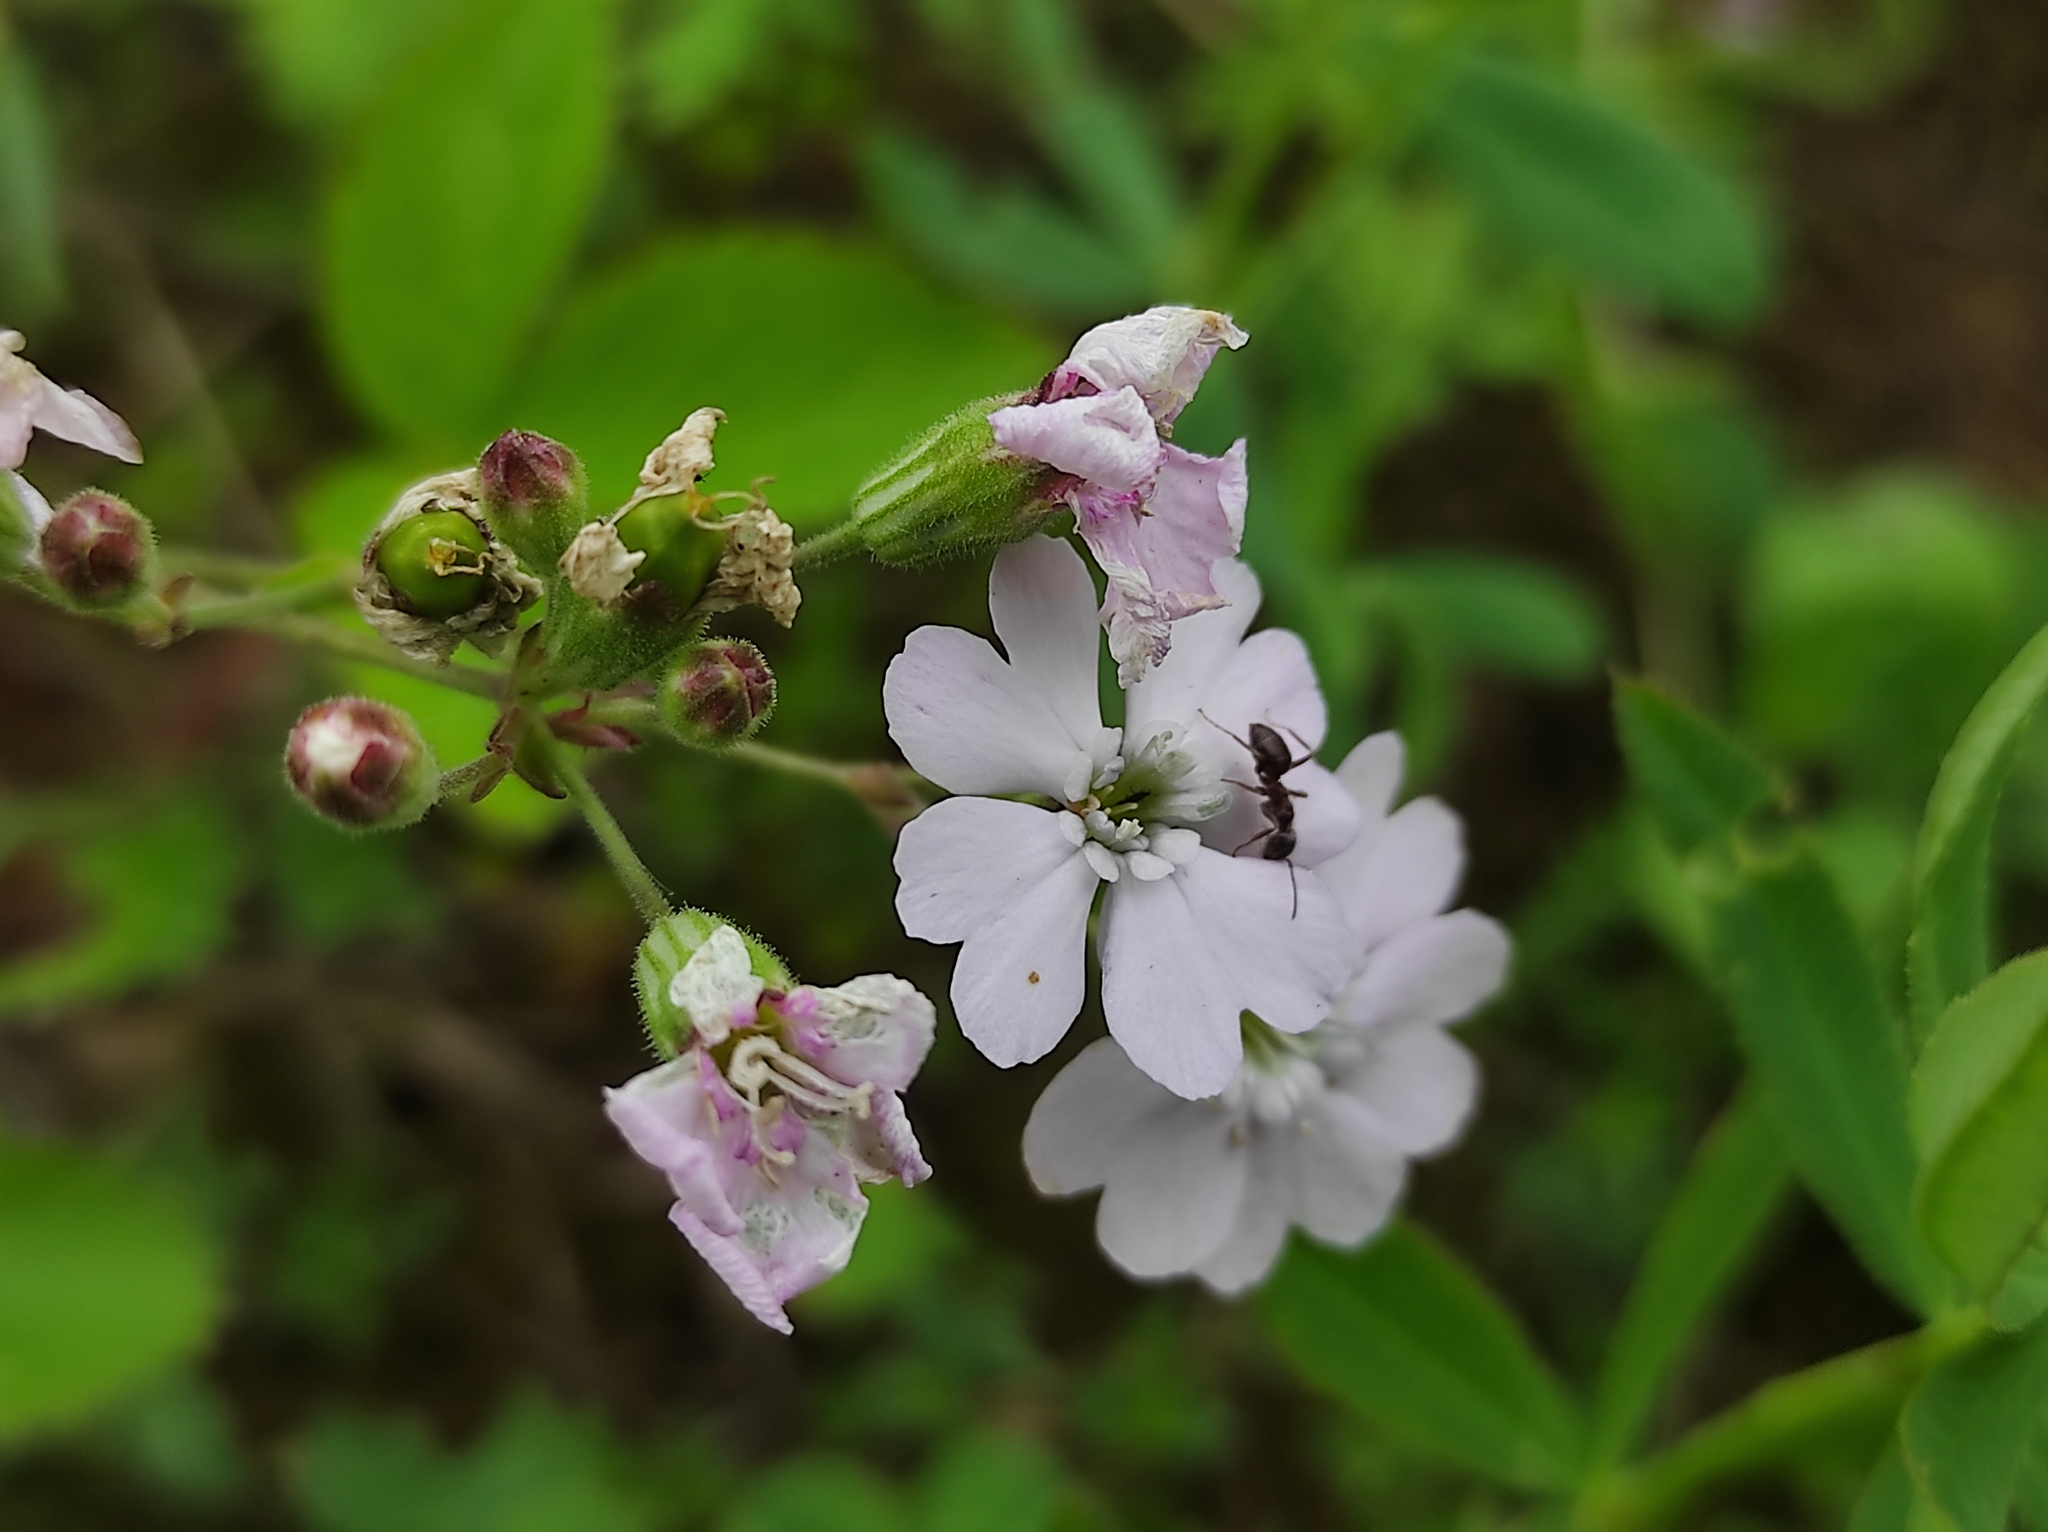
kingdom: Plantae
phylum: Tracheophyta
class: Magnoliopsida
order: Caryophyllales
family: Caryophyllaceae
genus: Silene
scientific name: Silene orientalimongolica
